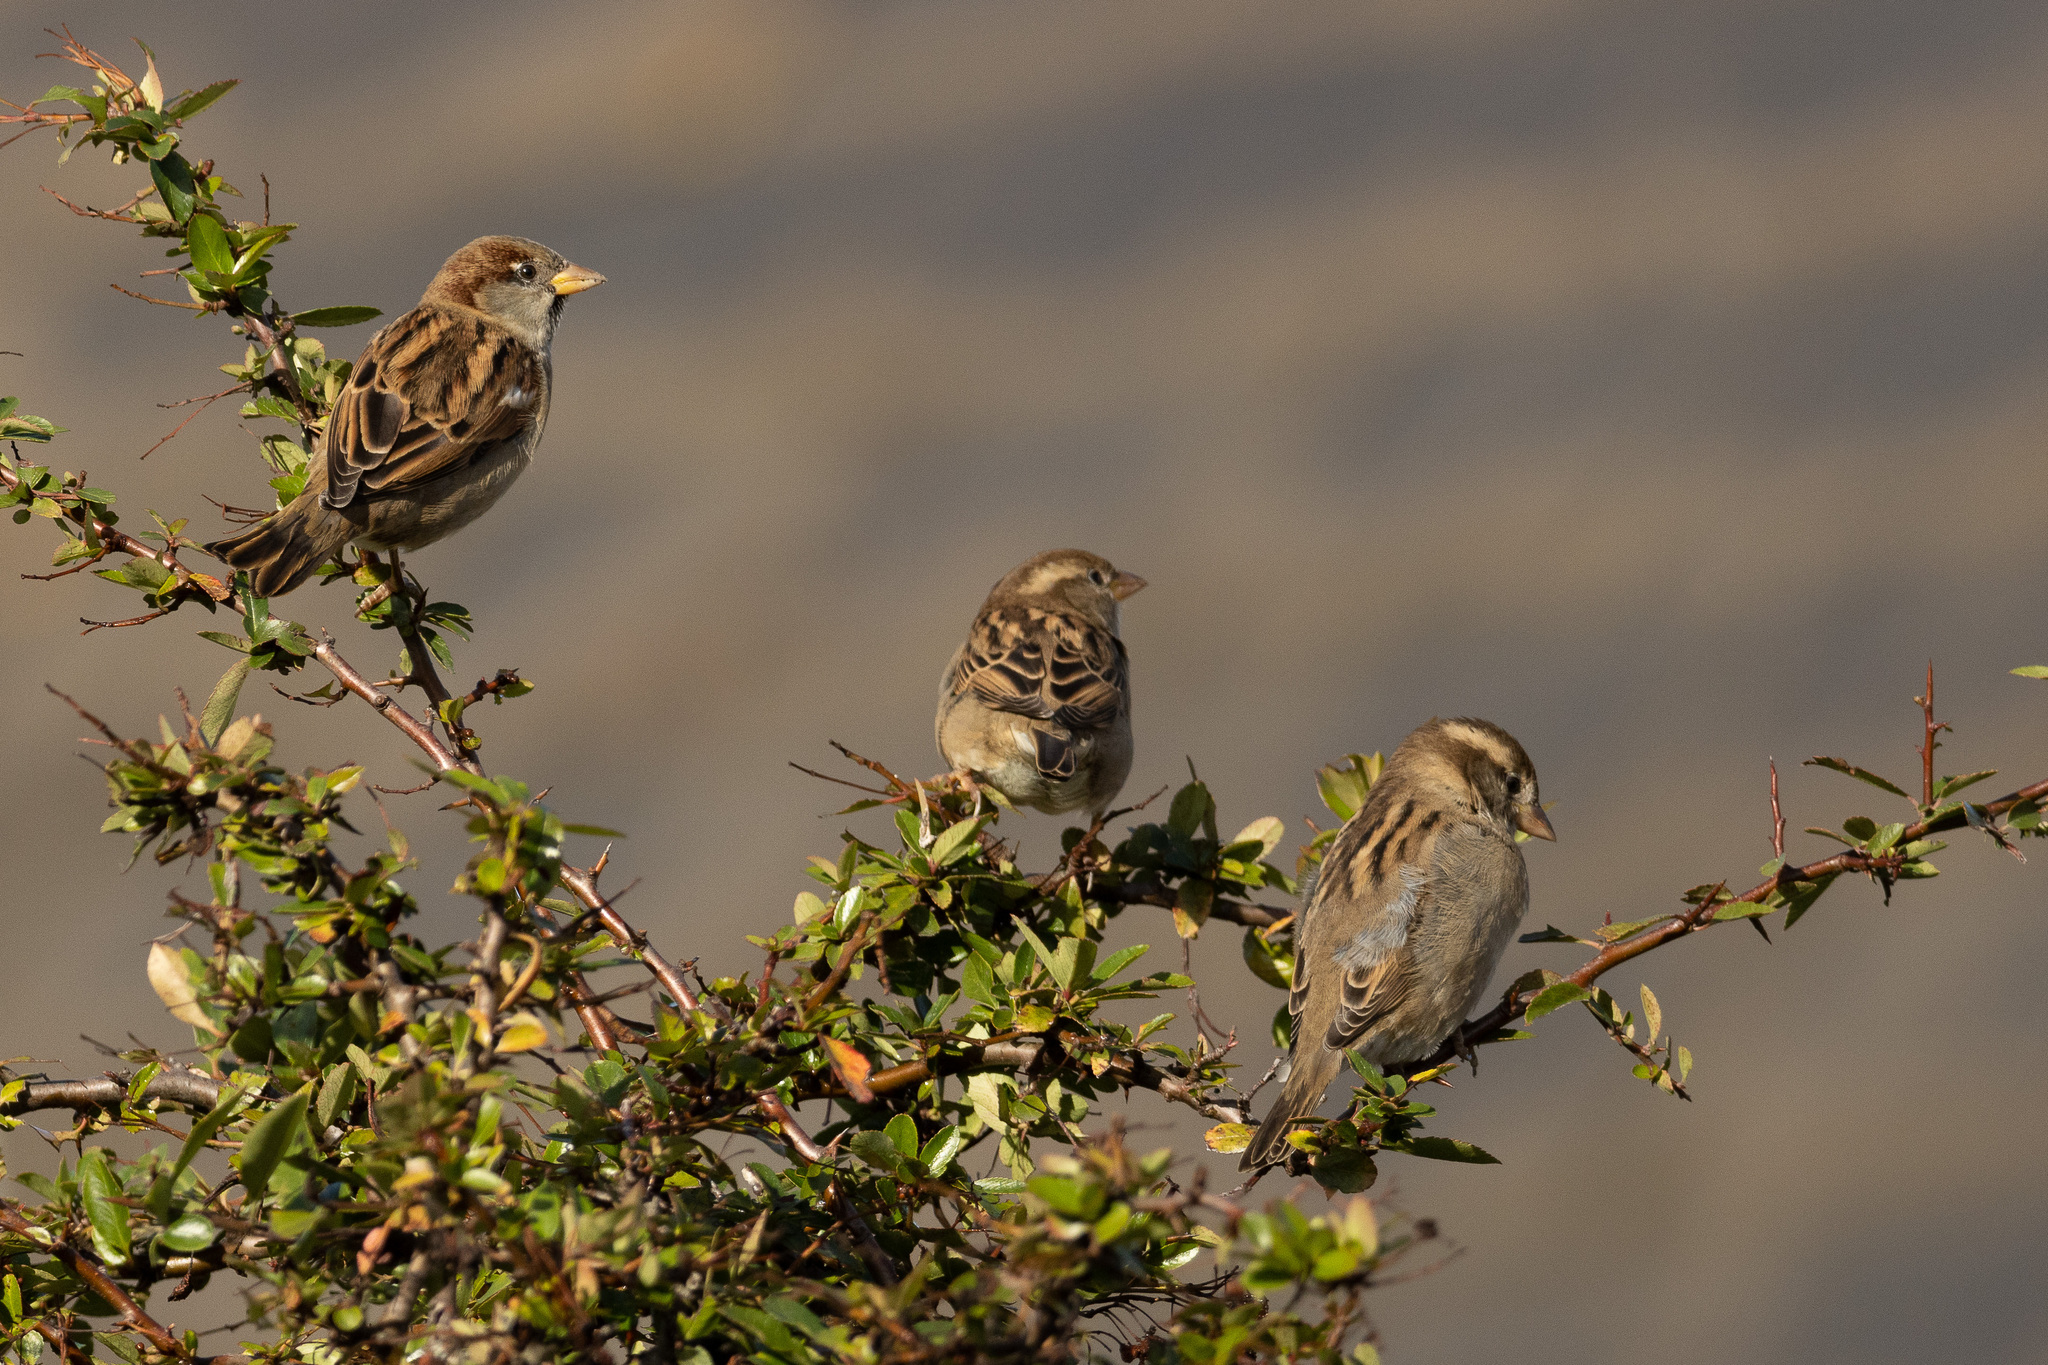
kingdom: Animalia
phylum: Chordata
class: Aves
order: Passeriformes
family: Passeridae
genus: Passer
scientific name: Passer domesticus
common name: House sparrow
